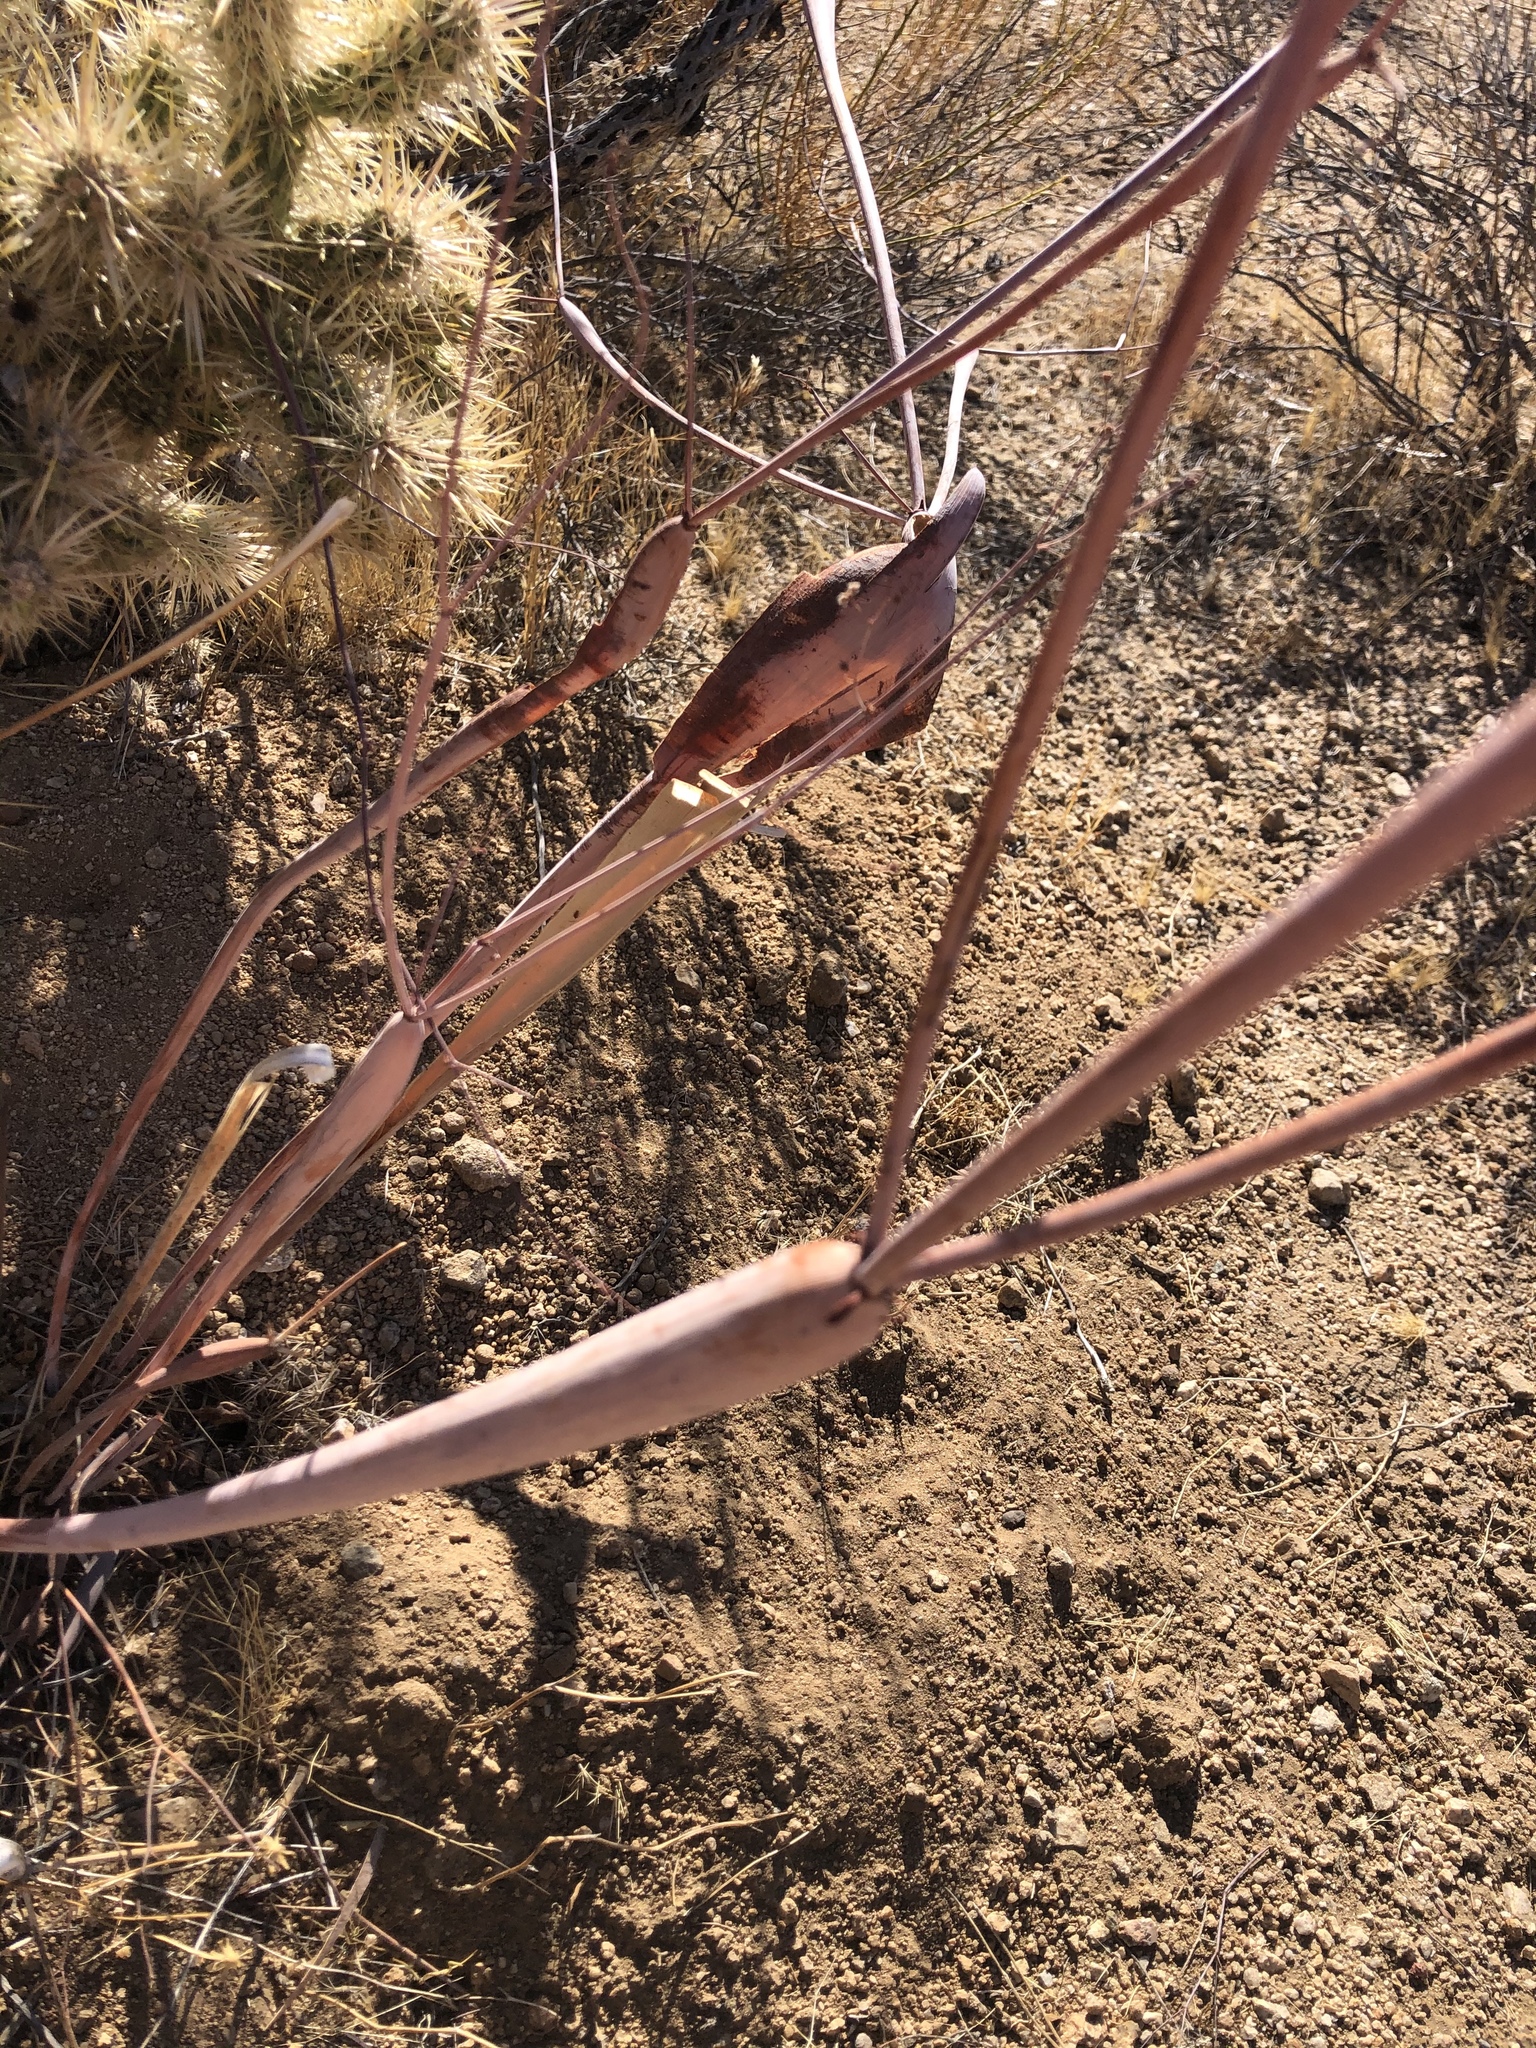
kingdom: Plantae
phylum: Tracheophyta
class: Magnoliopsida
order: Caryophyllales
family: Polygonaceae
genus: Eriogonum
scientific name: Eriogonum inflatum
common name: Desert trumpet
